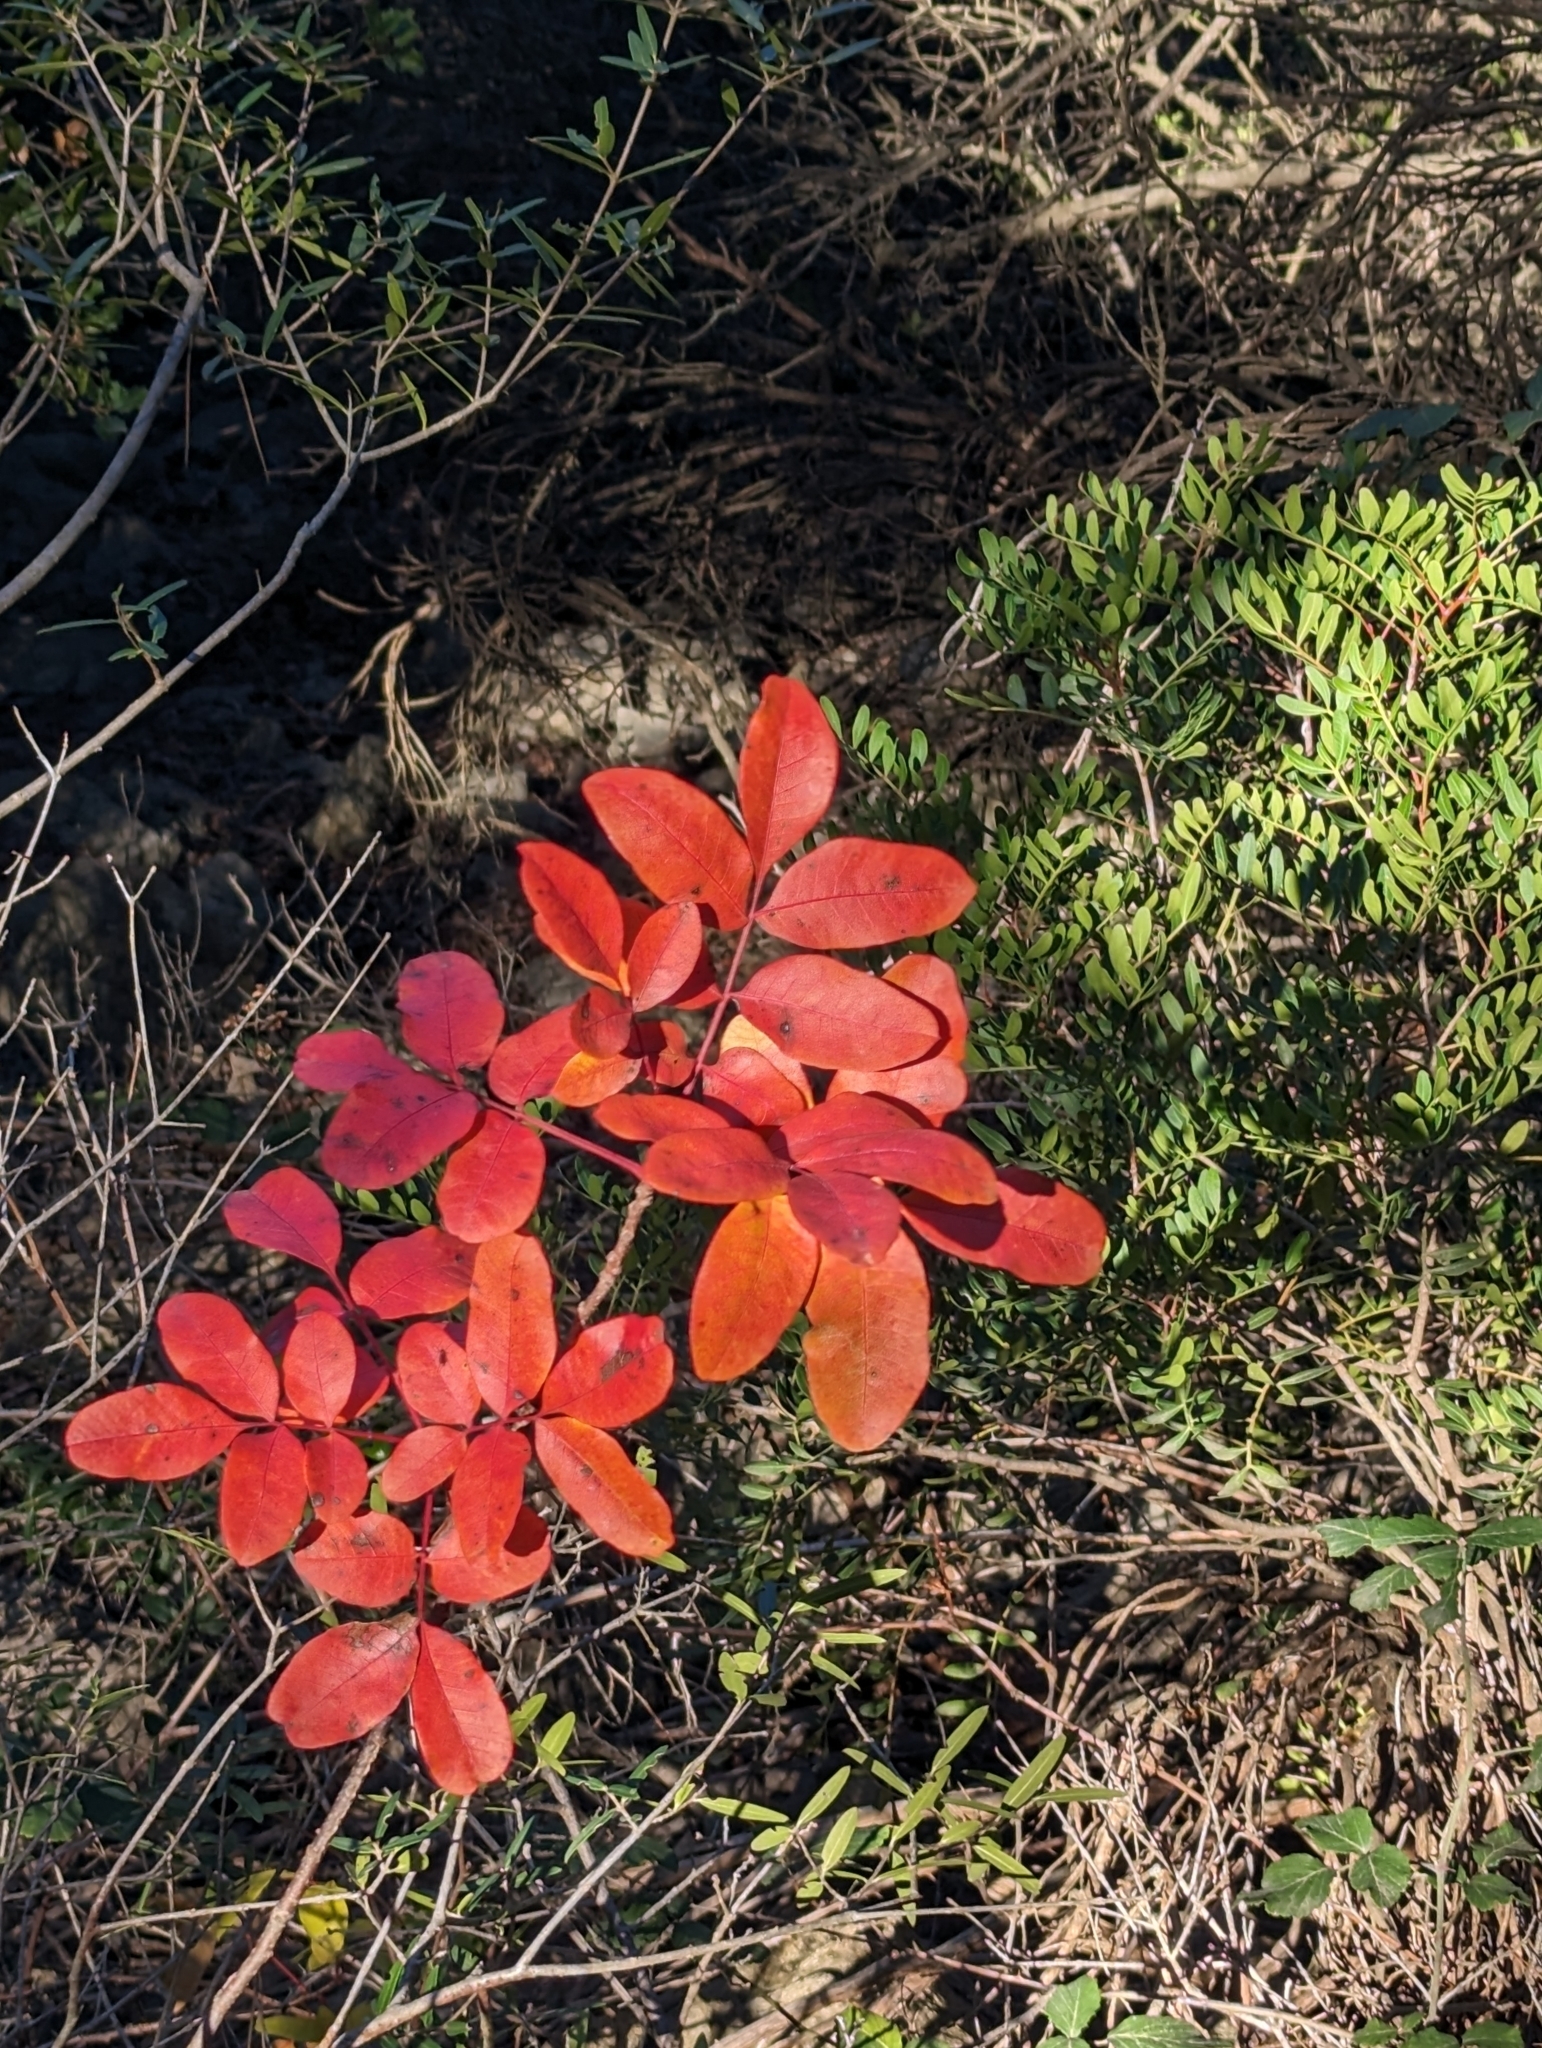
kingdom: Plantae
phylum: Tracheophyta
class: Magnoliopsida
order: Sapindales
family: Anacardiaceae
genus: Pistacia
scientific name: Pistacia terebinthus
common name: Terebinth
